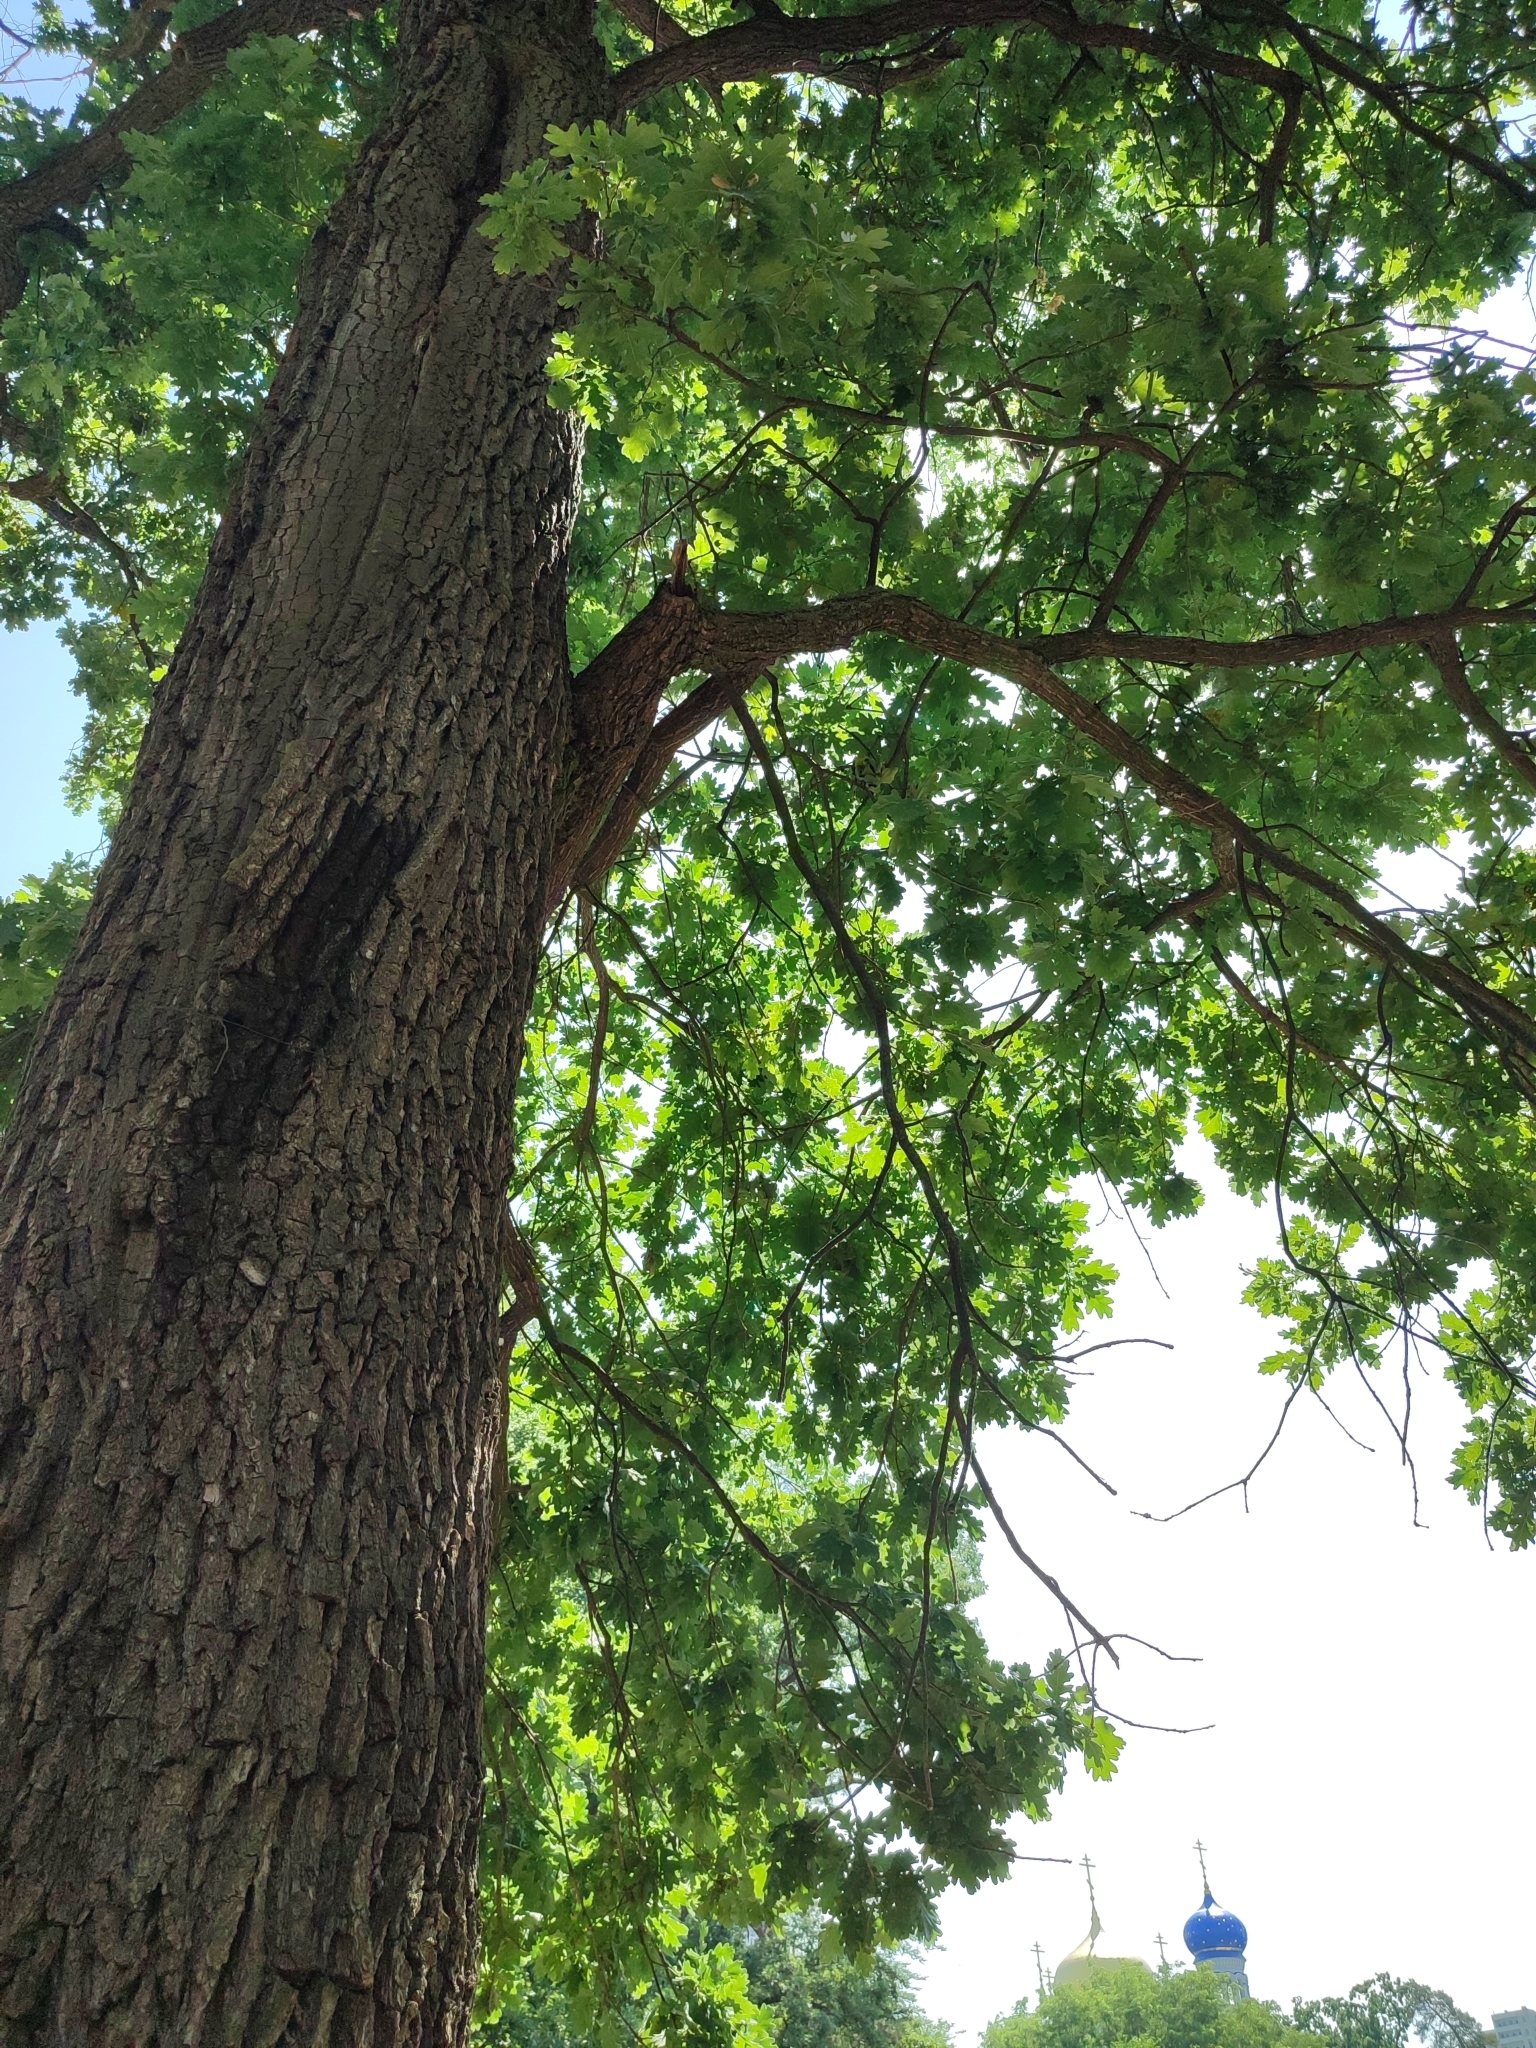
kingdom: Plantae
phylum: Tracheophyta
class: Magnoliopsida
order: Fagales
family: Fagaceae
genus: Quercus
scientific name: Quercus robur
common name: Pedunculate oak
